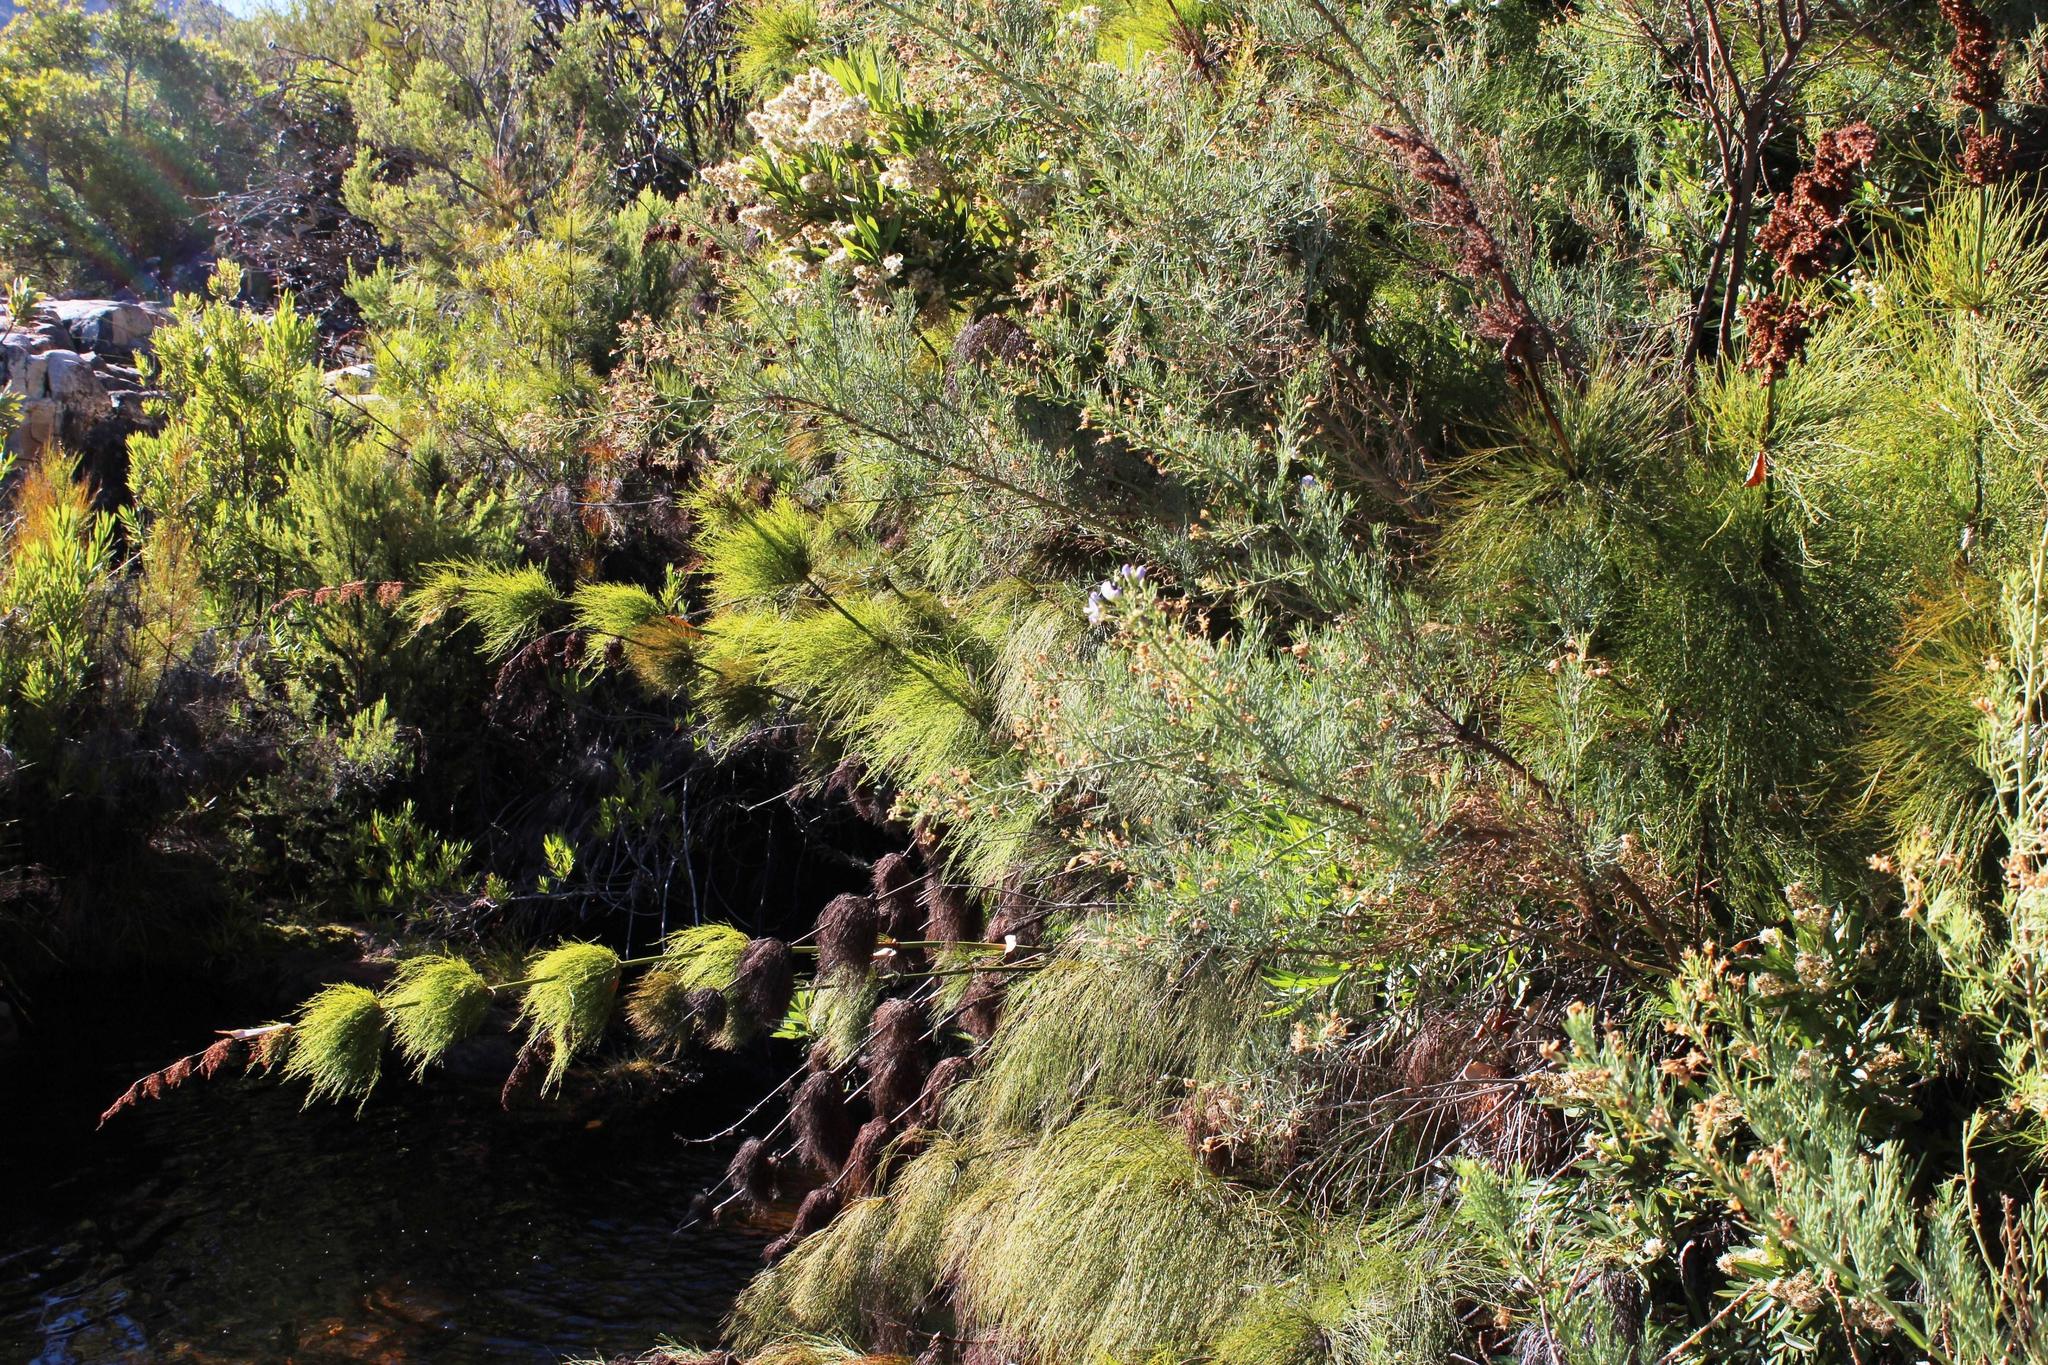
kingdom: Plantae
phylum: Tracheophyta
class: Magnoliopsida
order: Fabales
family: Fabaceae
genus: Psoralea
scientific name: Psoralea verrucosa
